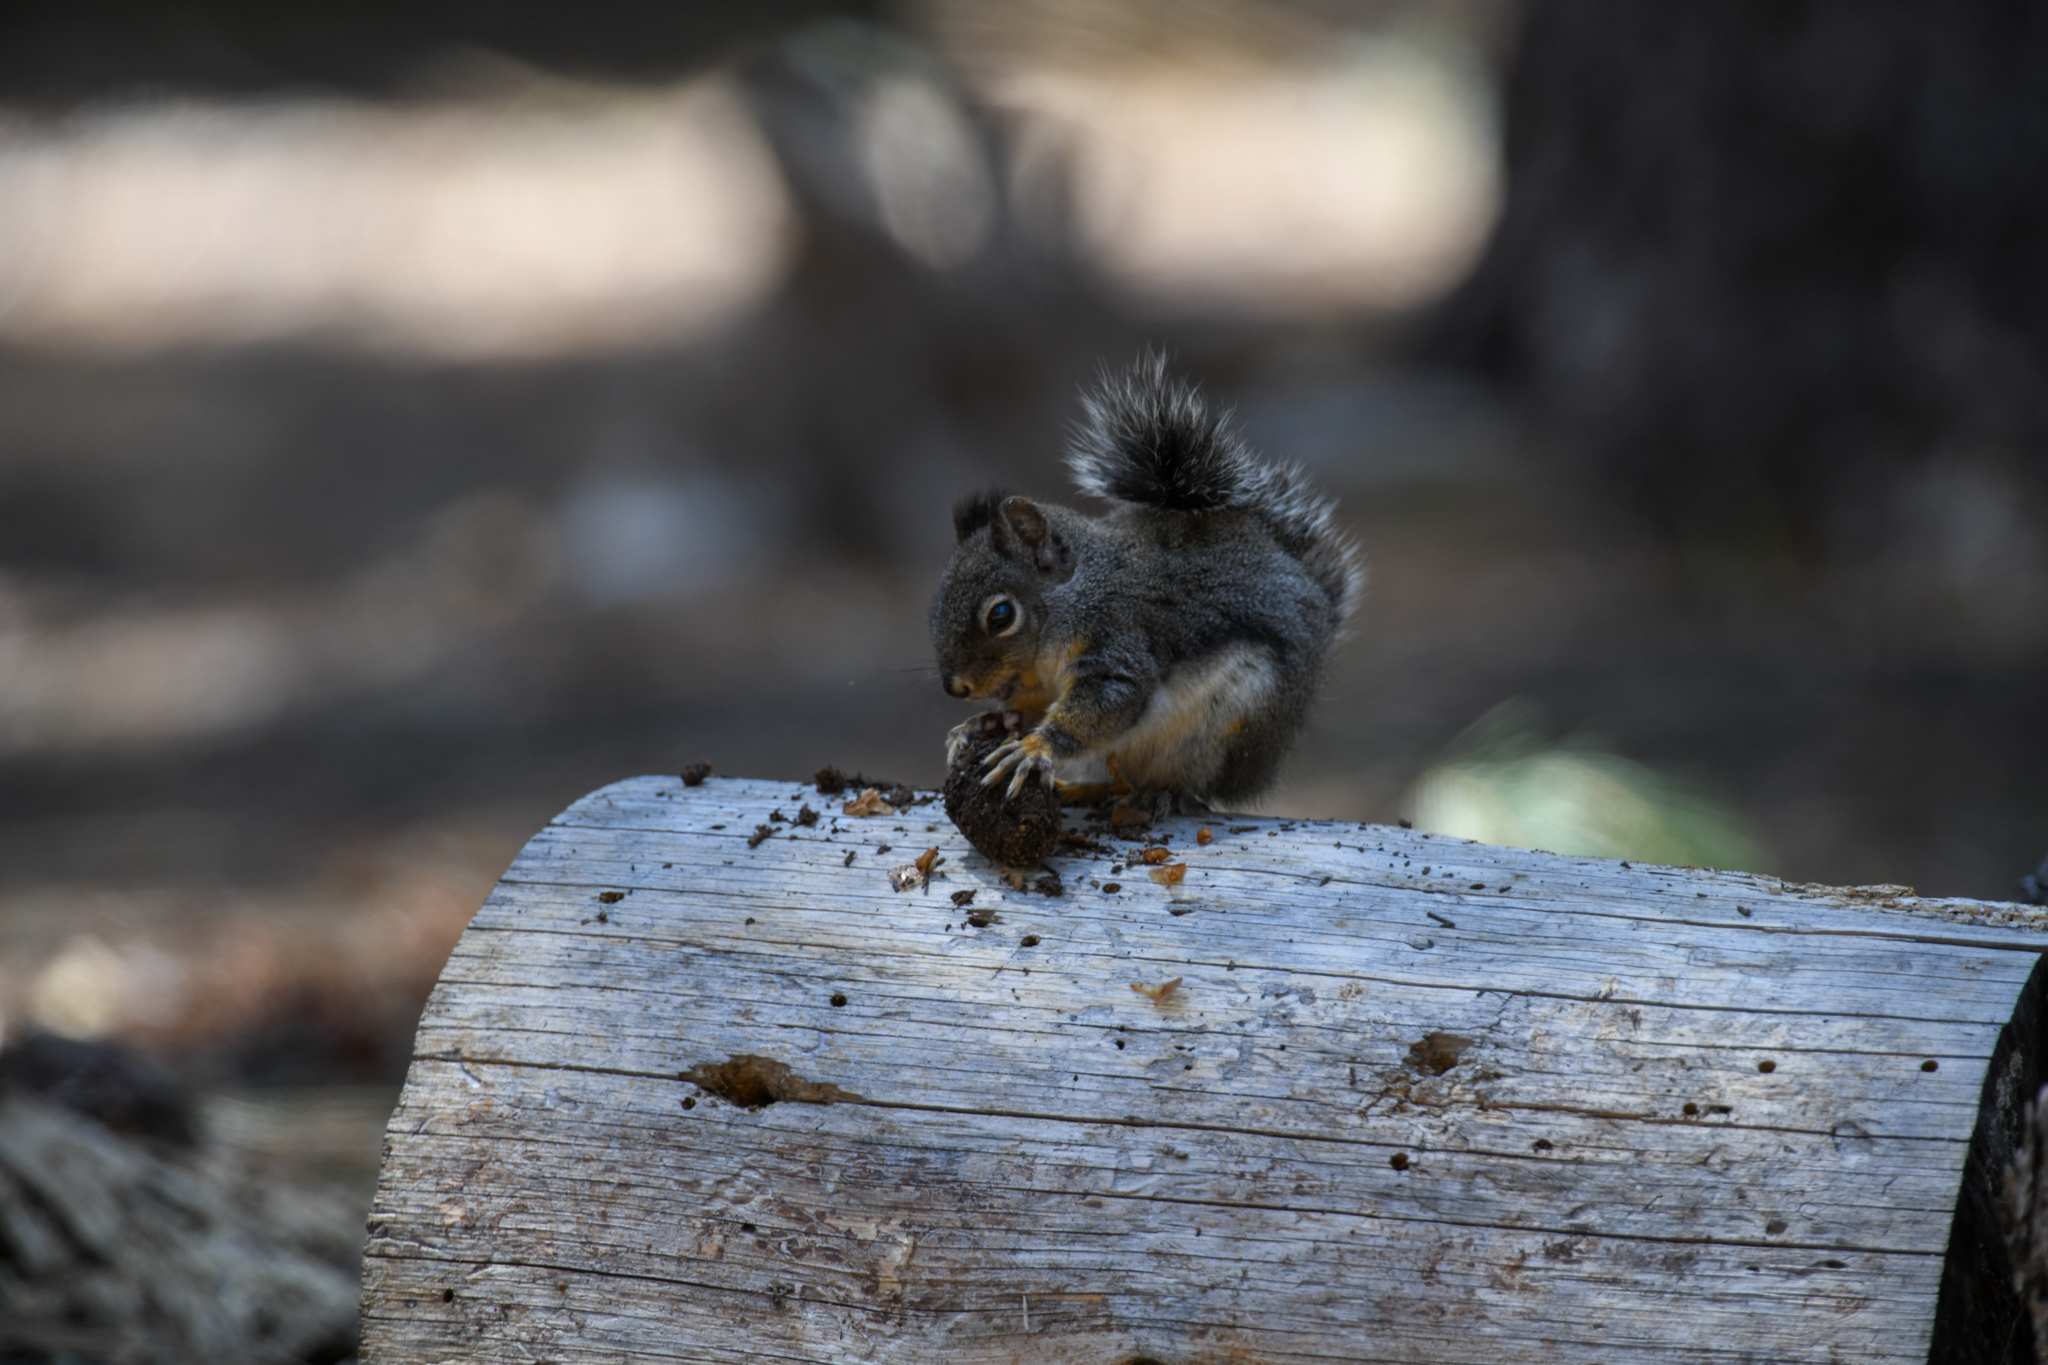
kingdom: Animalia
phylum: Chordata
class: Mammalia
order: Rodentia
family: Sciuridae
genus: Tamiasciurus
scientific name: Tamiasciurus douglasii
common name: Douglas's squirrel
